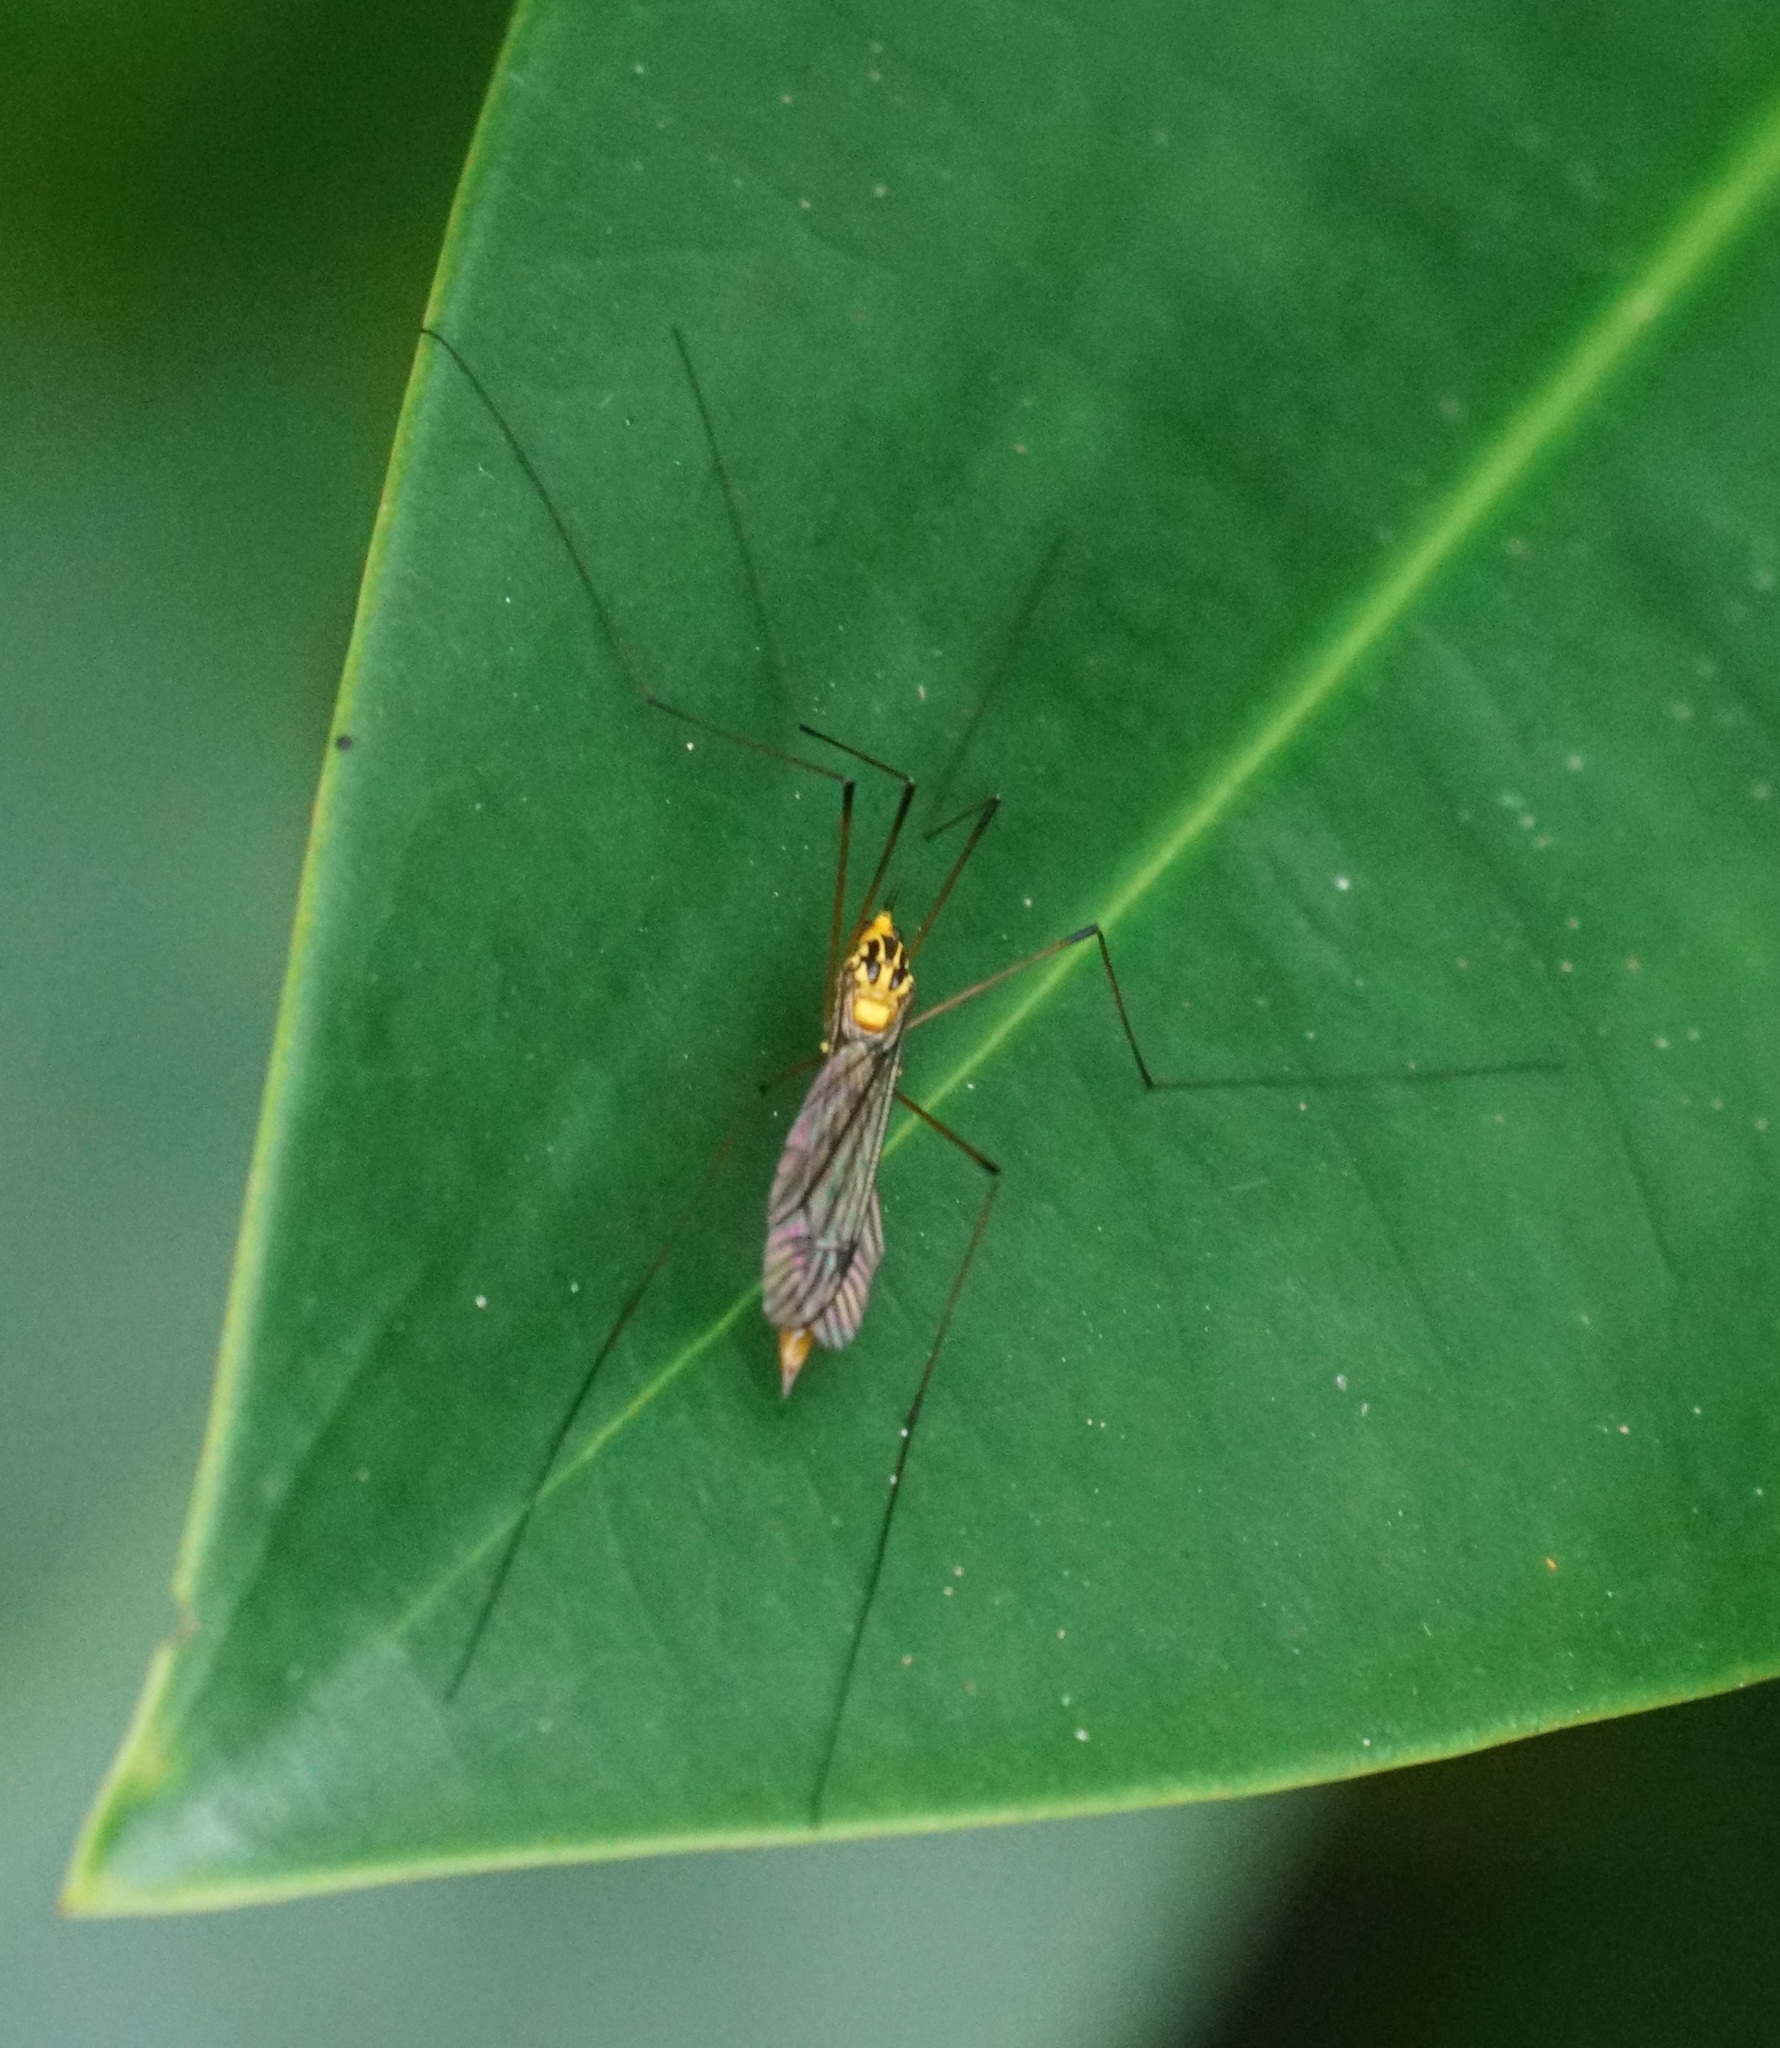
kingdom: Animalia
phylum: Arthropoda
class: Insecta
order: Diptera
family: Tipulidae
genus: Nephrotoma
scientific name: Nephrotoma australasiae
